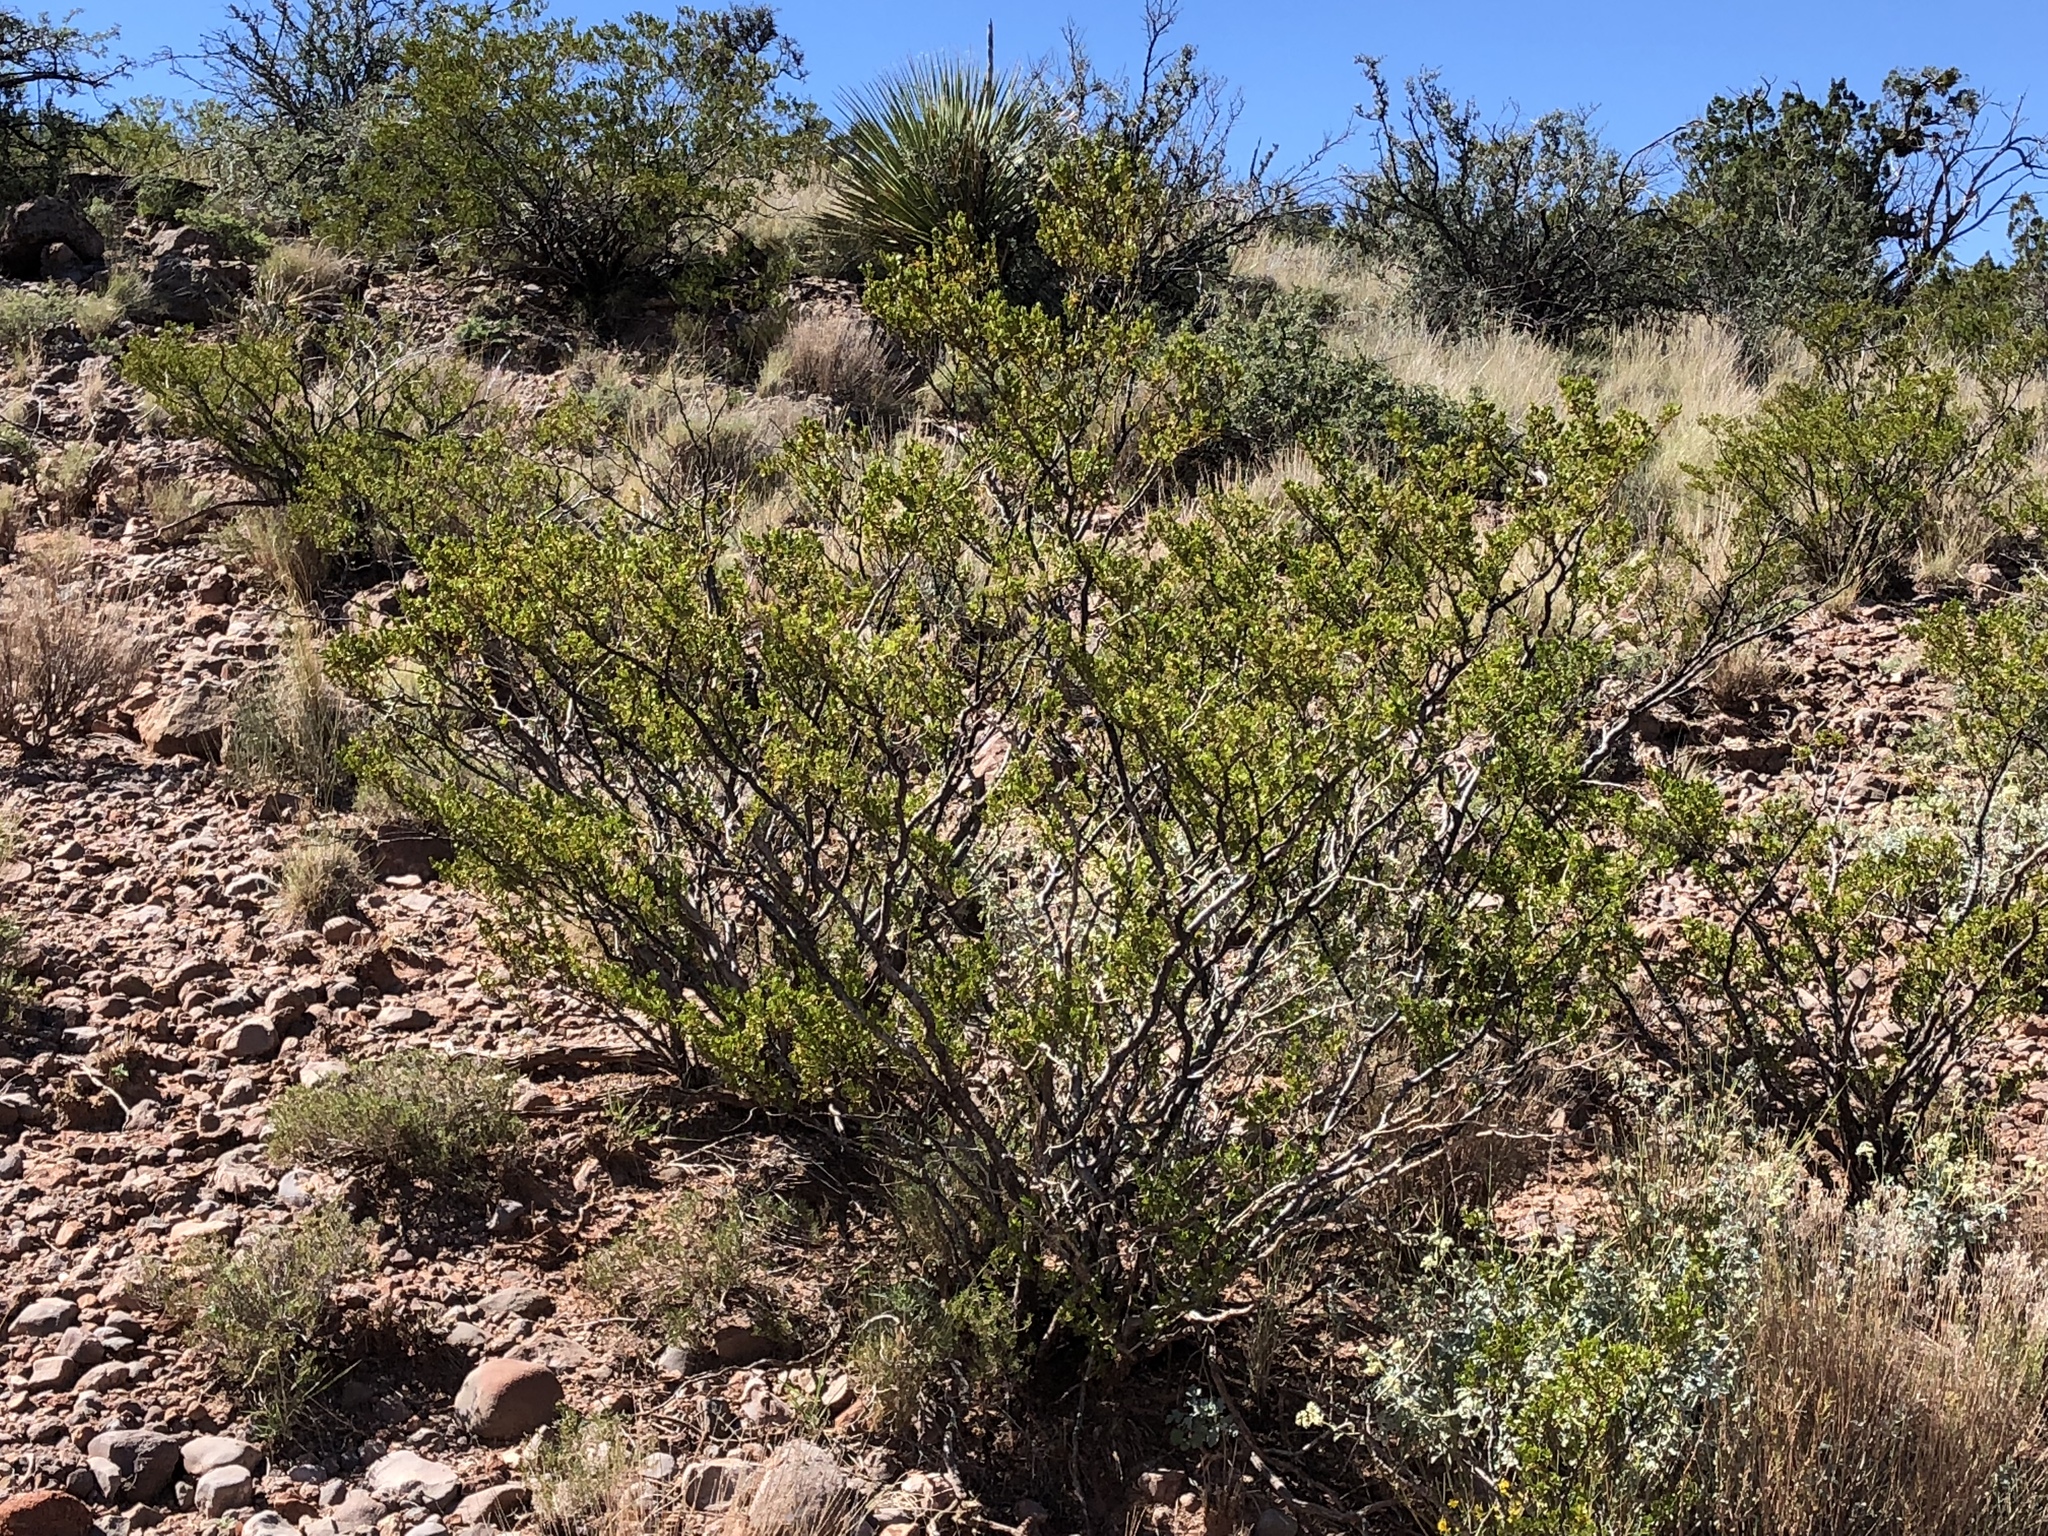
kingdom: Plantae
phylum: Tracheophyta
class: Magnoliopsida
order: Zygophyllales
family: Zygophyllaceae
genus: Larrea
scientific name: Larrea tridentata
